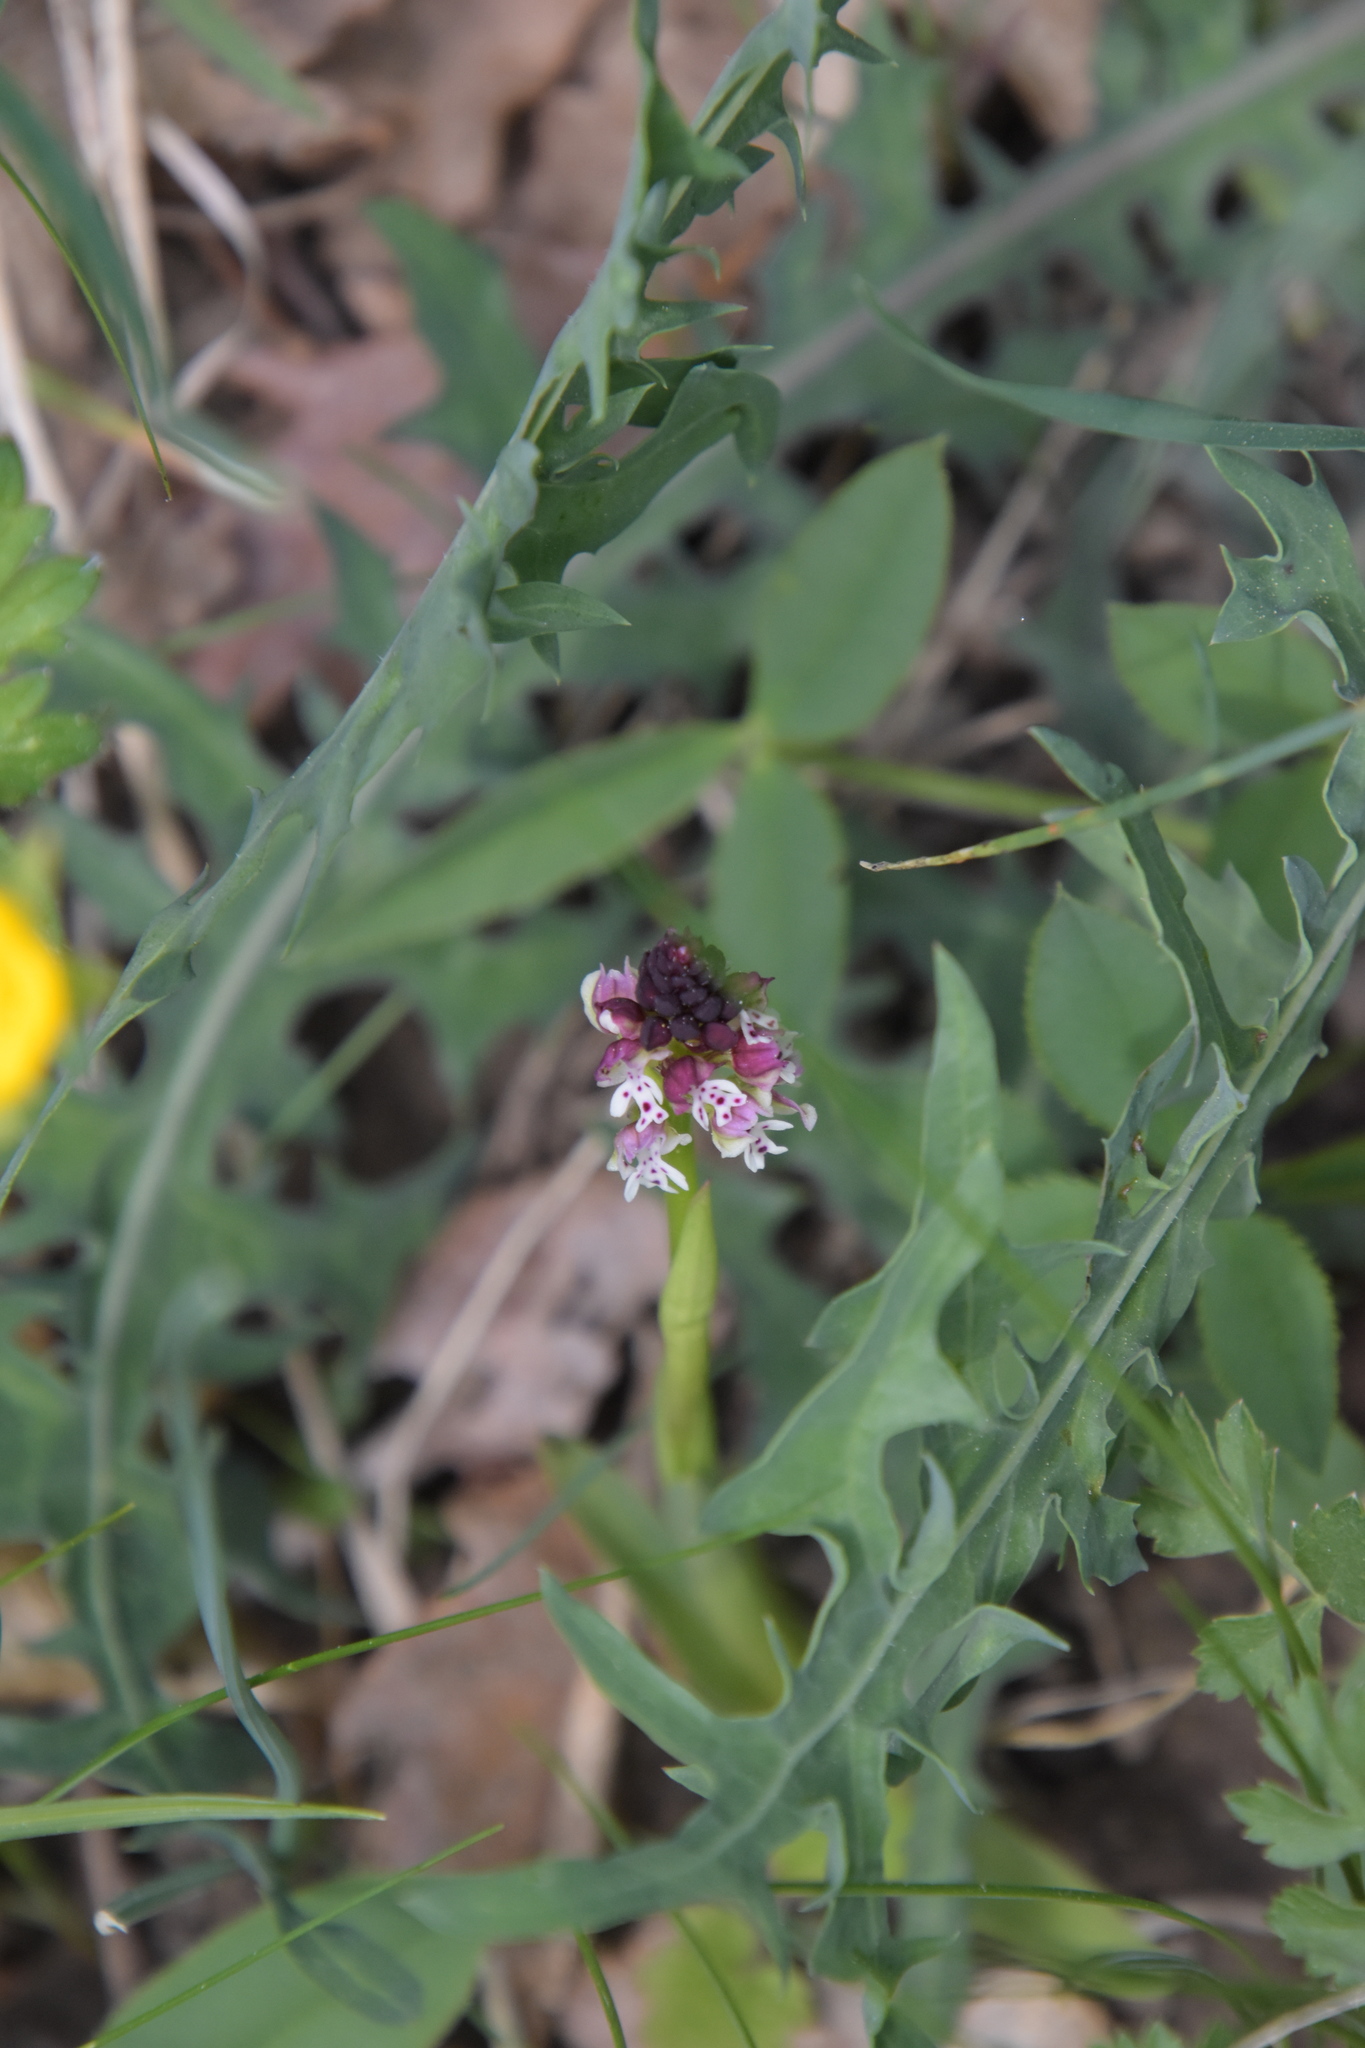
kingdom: Plantae
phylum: Tracheophyta
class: Liliopsida
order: Asparagales
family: Orchidaceae
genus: Neotinea
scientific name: Neotinea ustulata
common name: Burnt orchid
